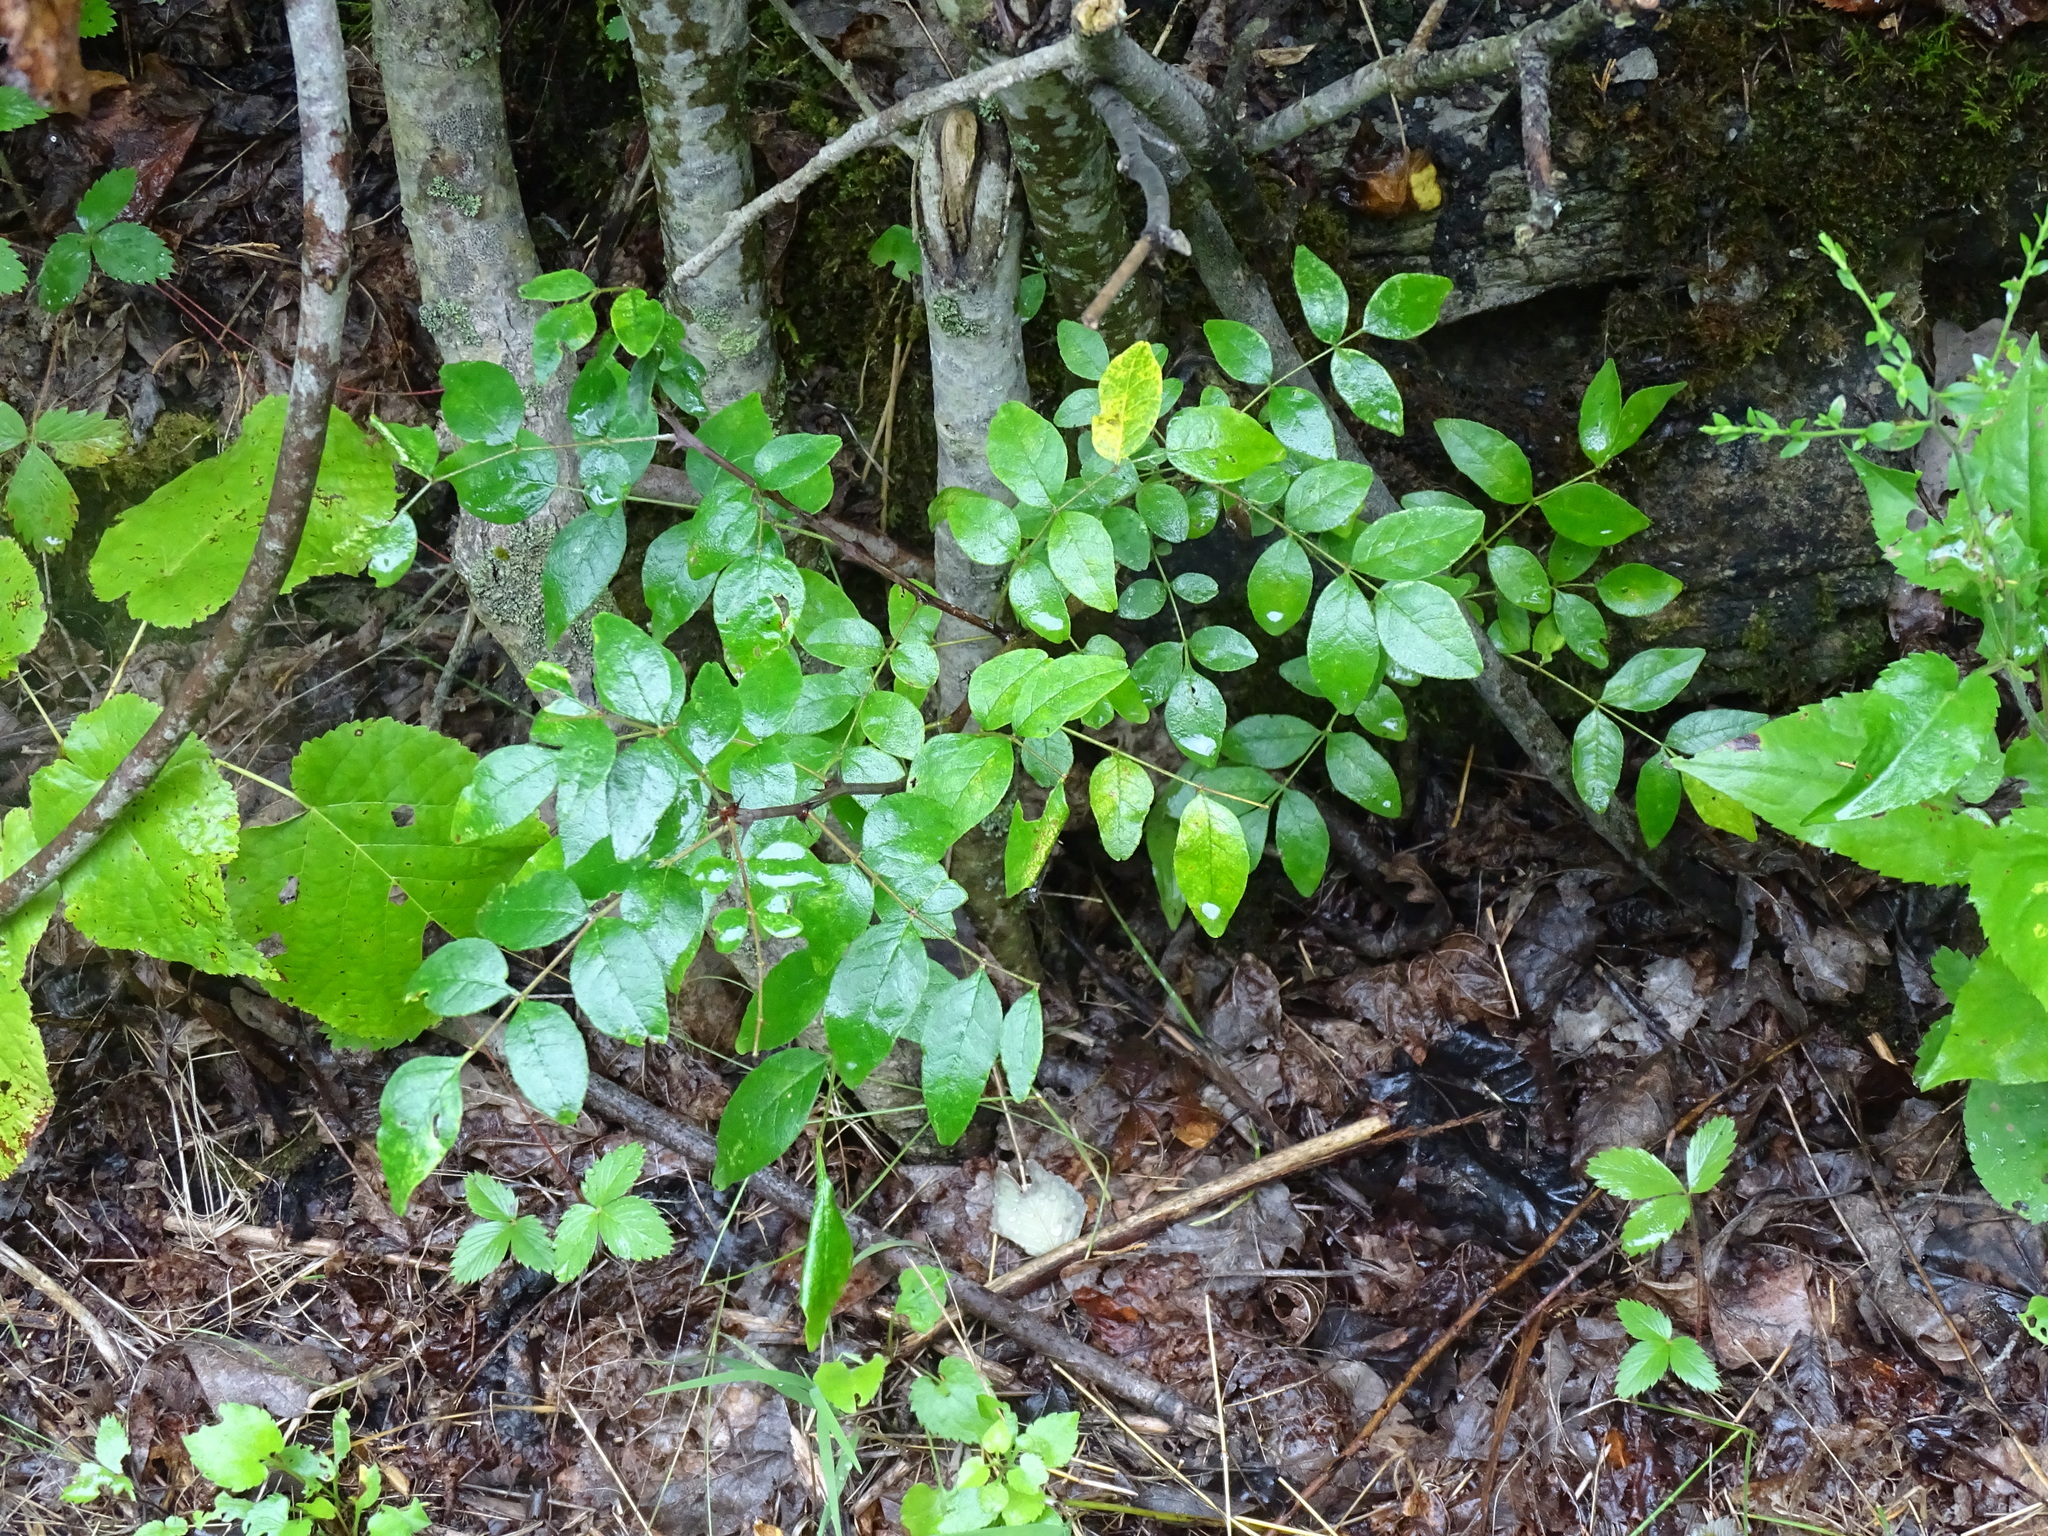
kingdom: Plantae
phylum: Tracheophyta
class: Magnoliopsida
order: Sapindales
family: Rutaceae
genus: Zanthoxylum
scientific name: Zanthoxylum americanum
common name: Northern prickly-ash
